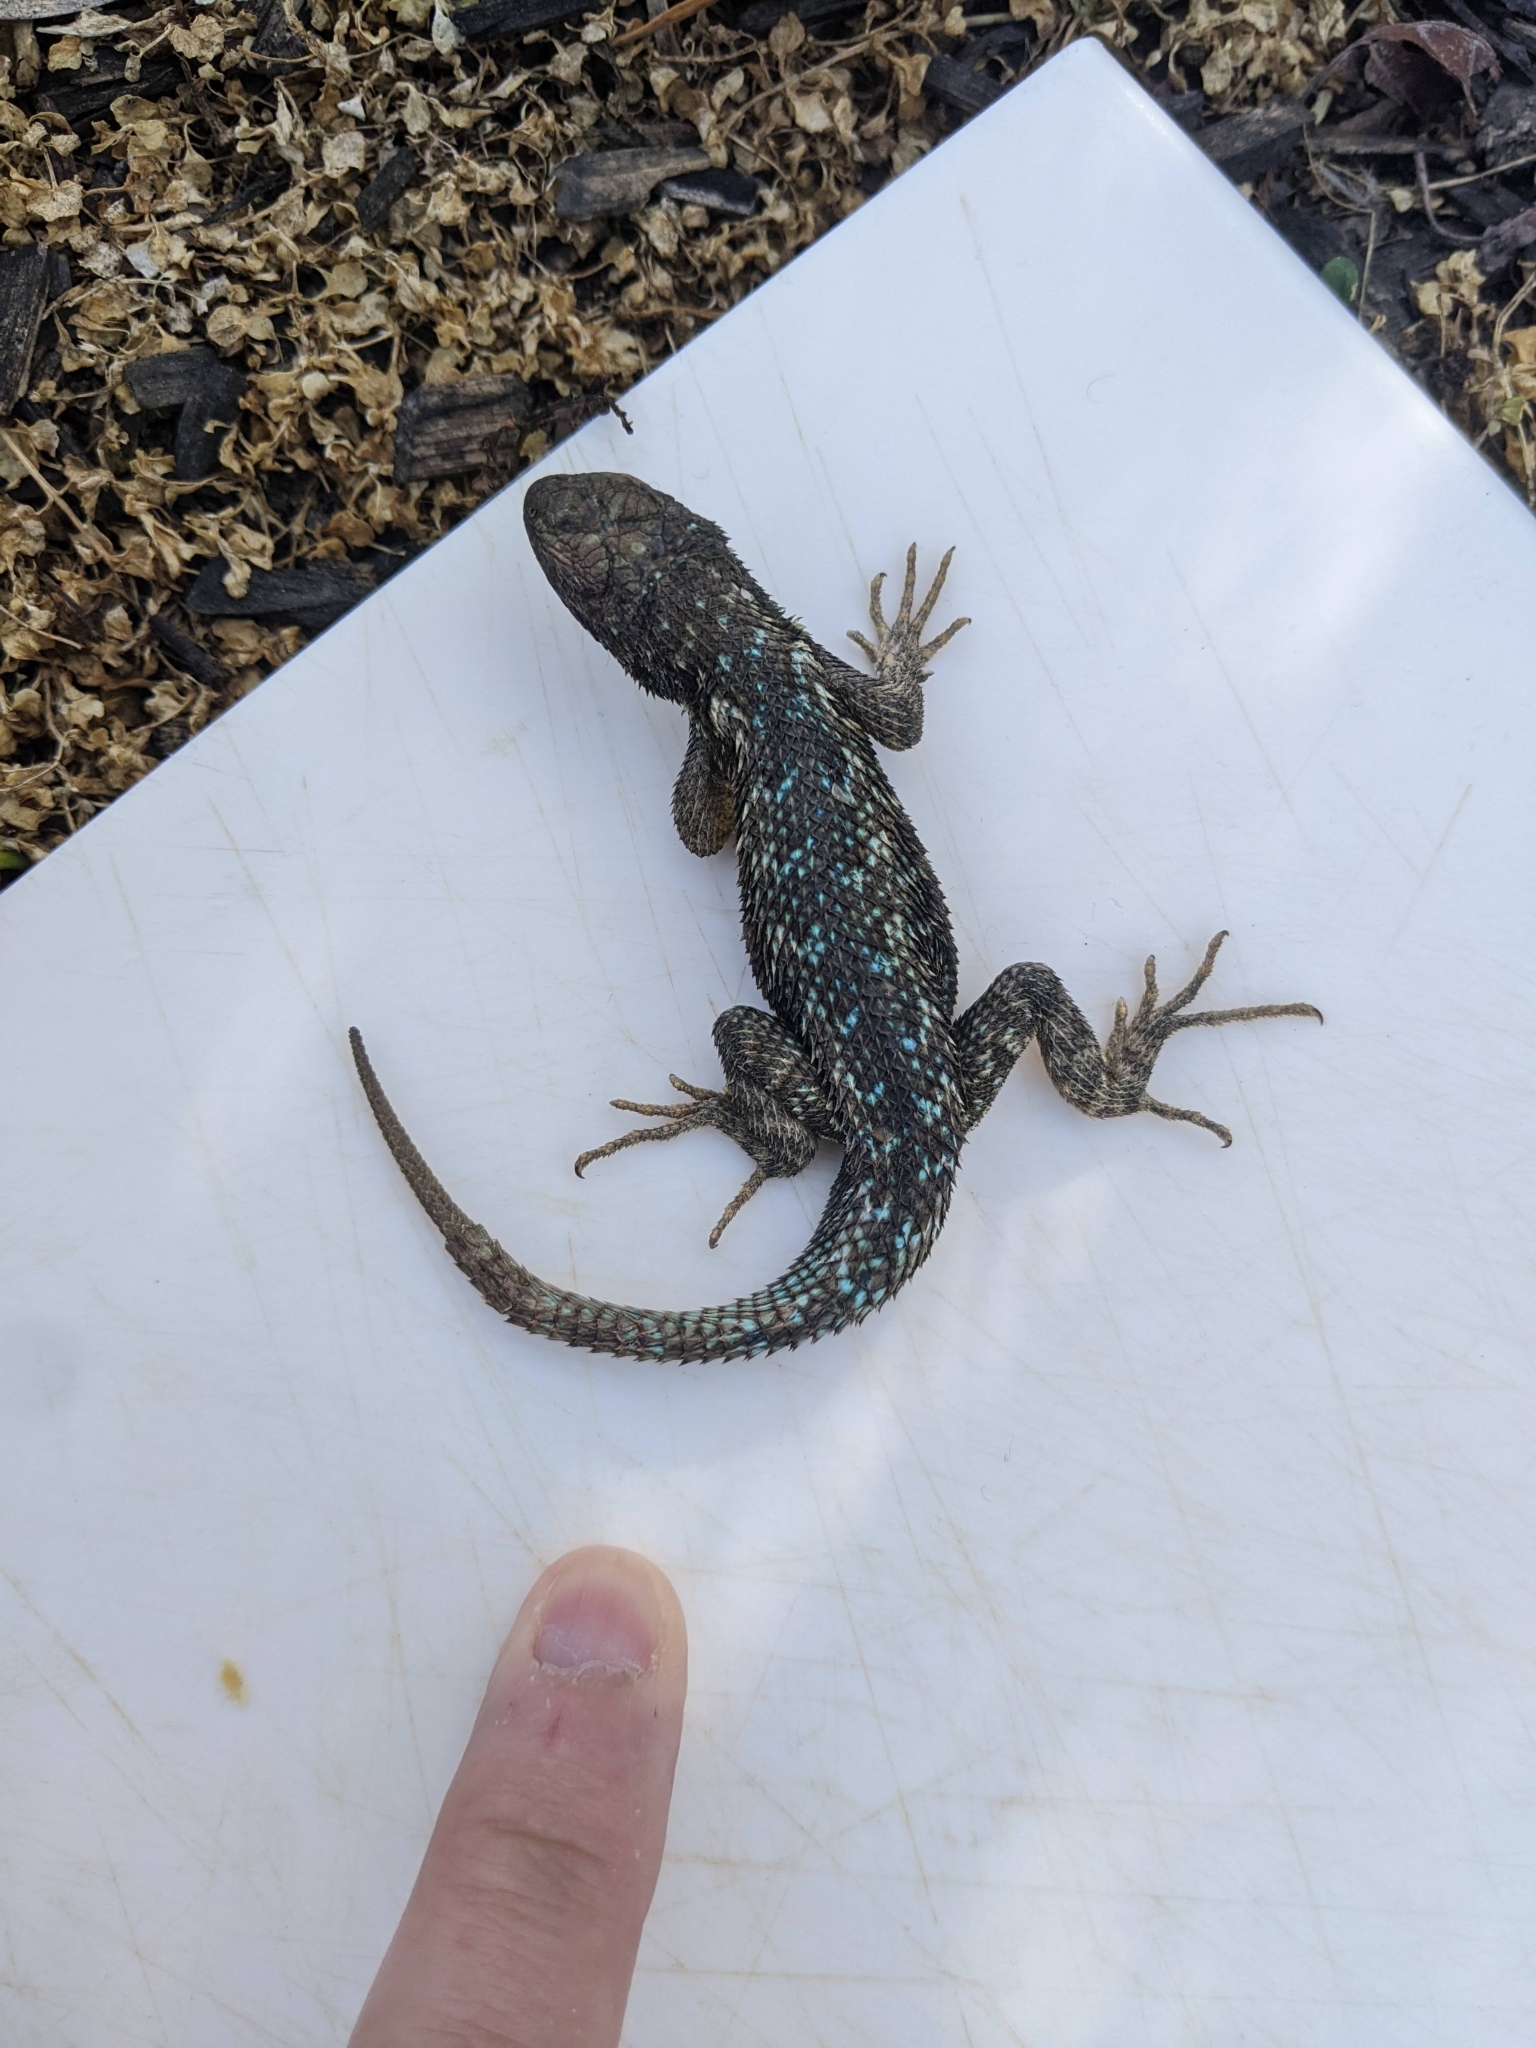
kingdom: Animalia
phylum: Chordata
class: Squamata
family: Phrynosomatidae
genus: Sceloporus
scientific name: Sceloporus occidentalis
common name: Western fence lizard
